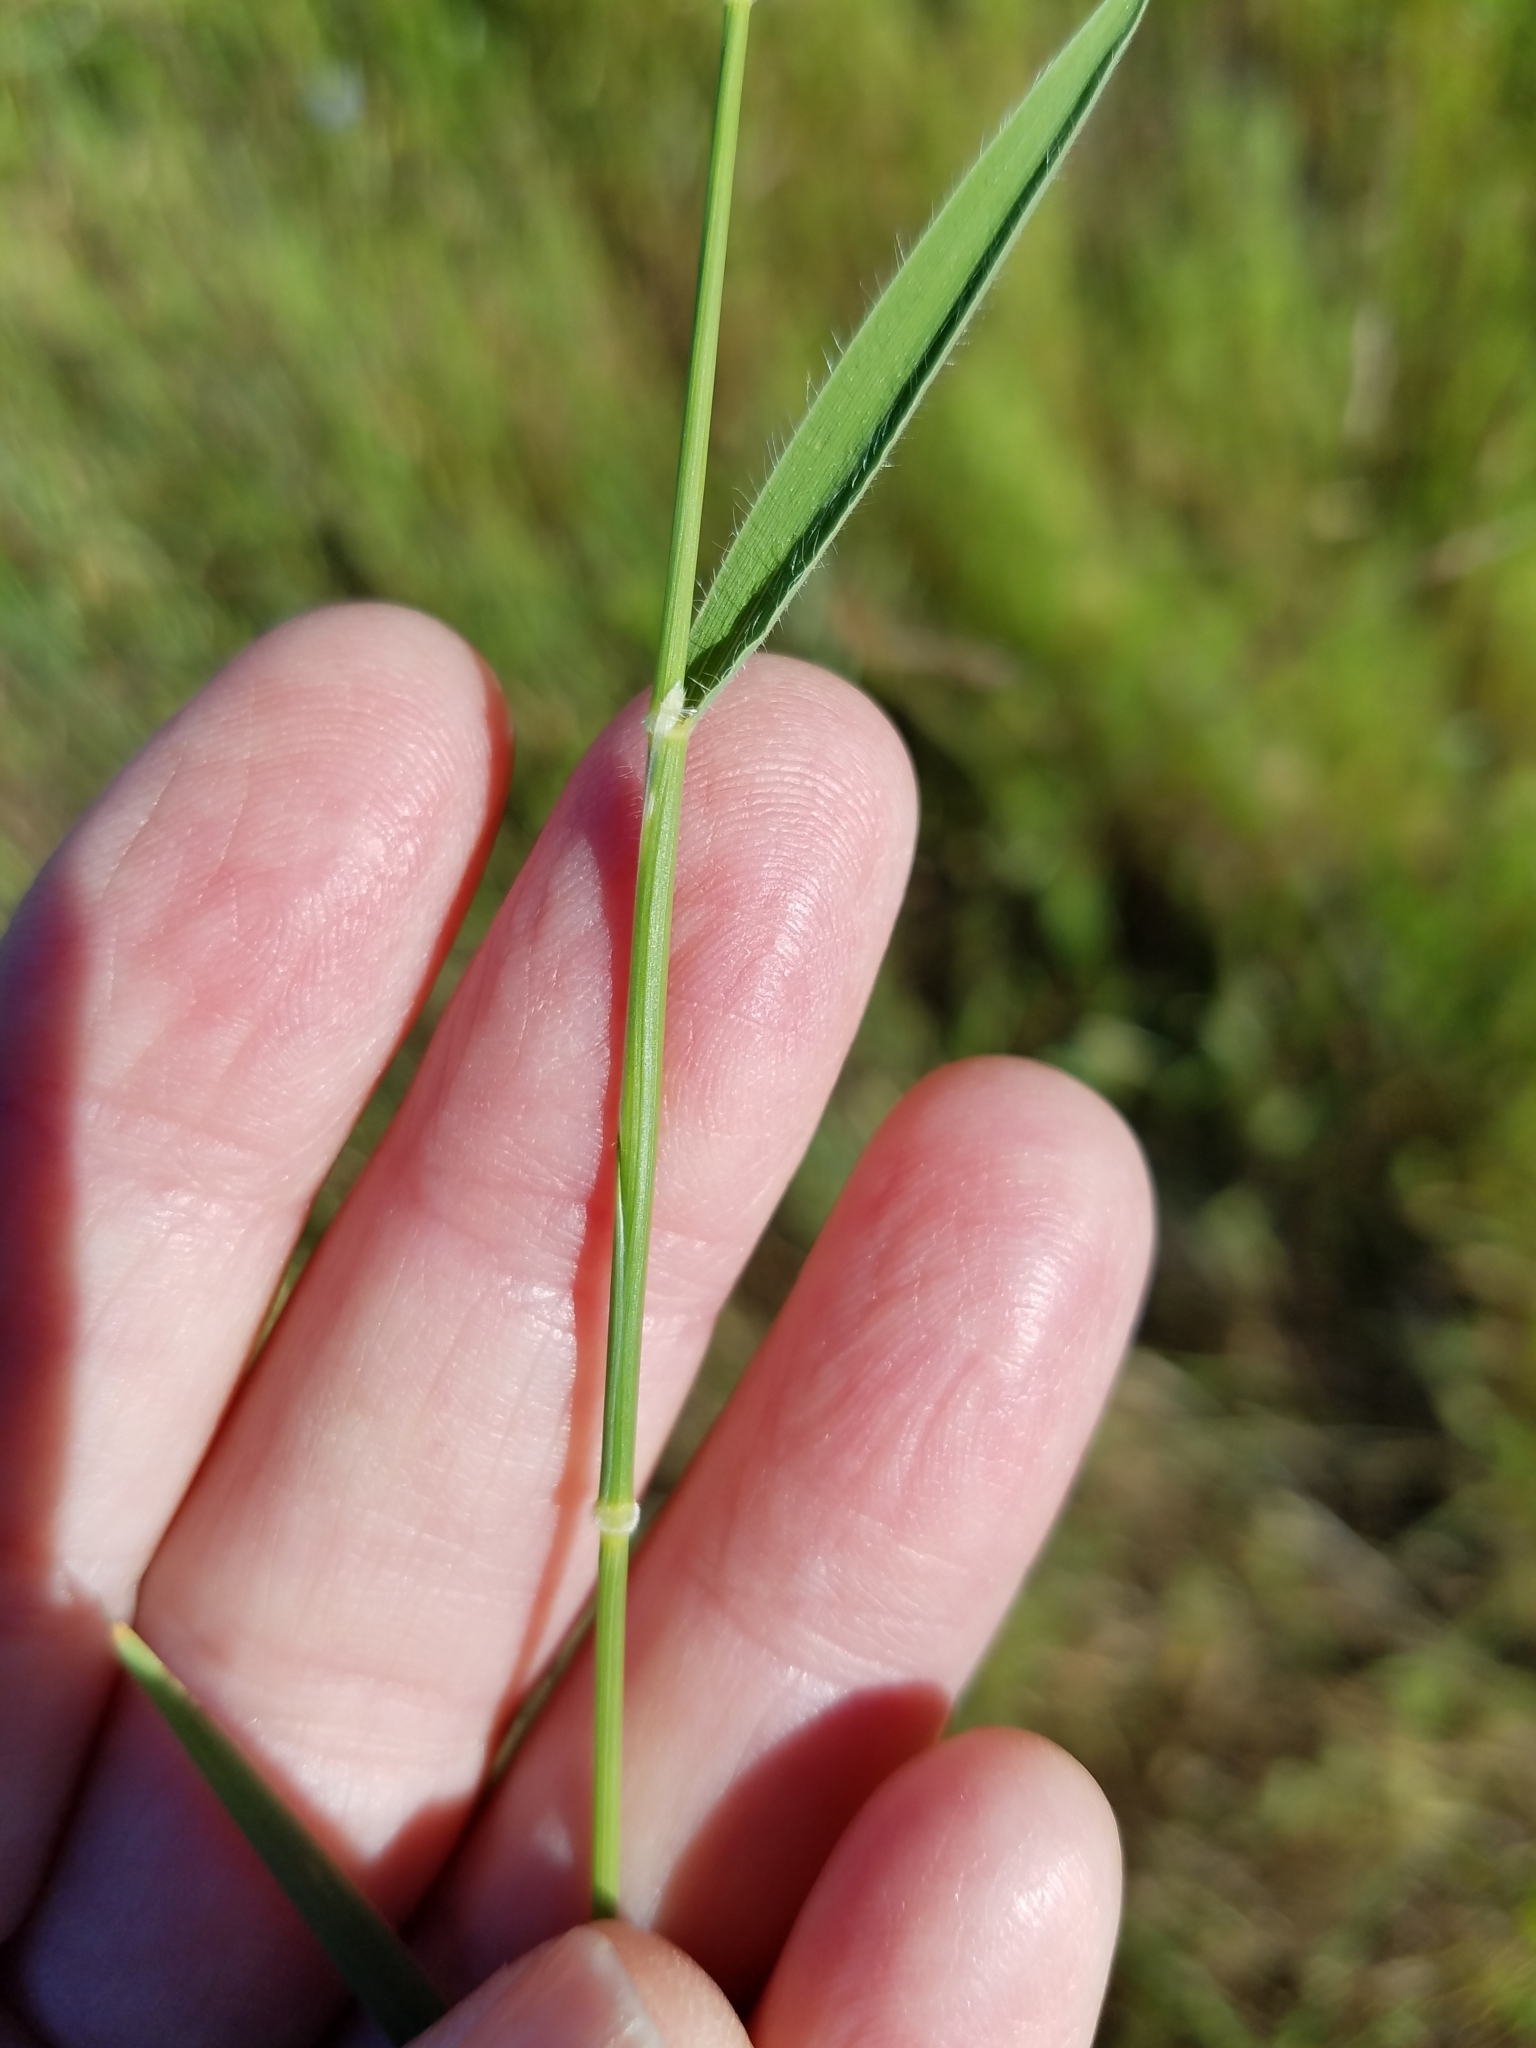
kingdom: Plantae
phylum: Tracheophyta
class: Liliopsida
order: Poales
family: Poaceae
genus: Brachypodium
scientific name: Brachypodium distachyon
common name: Stiff brome
